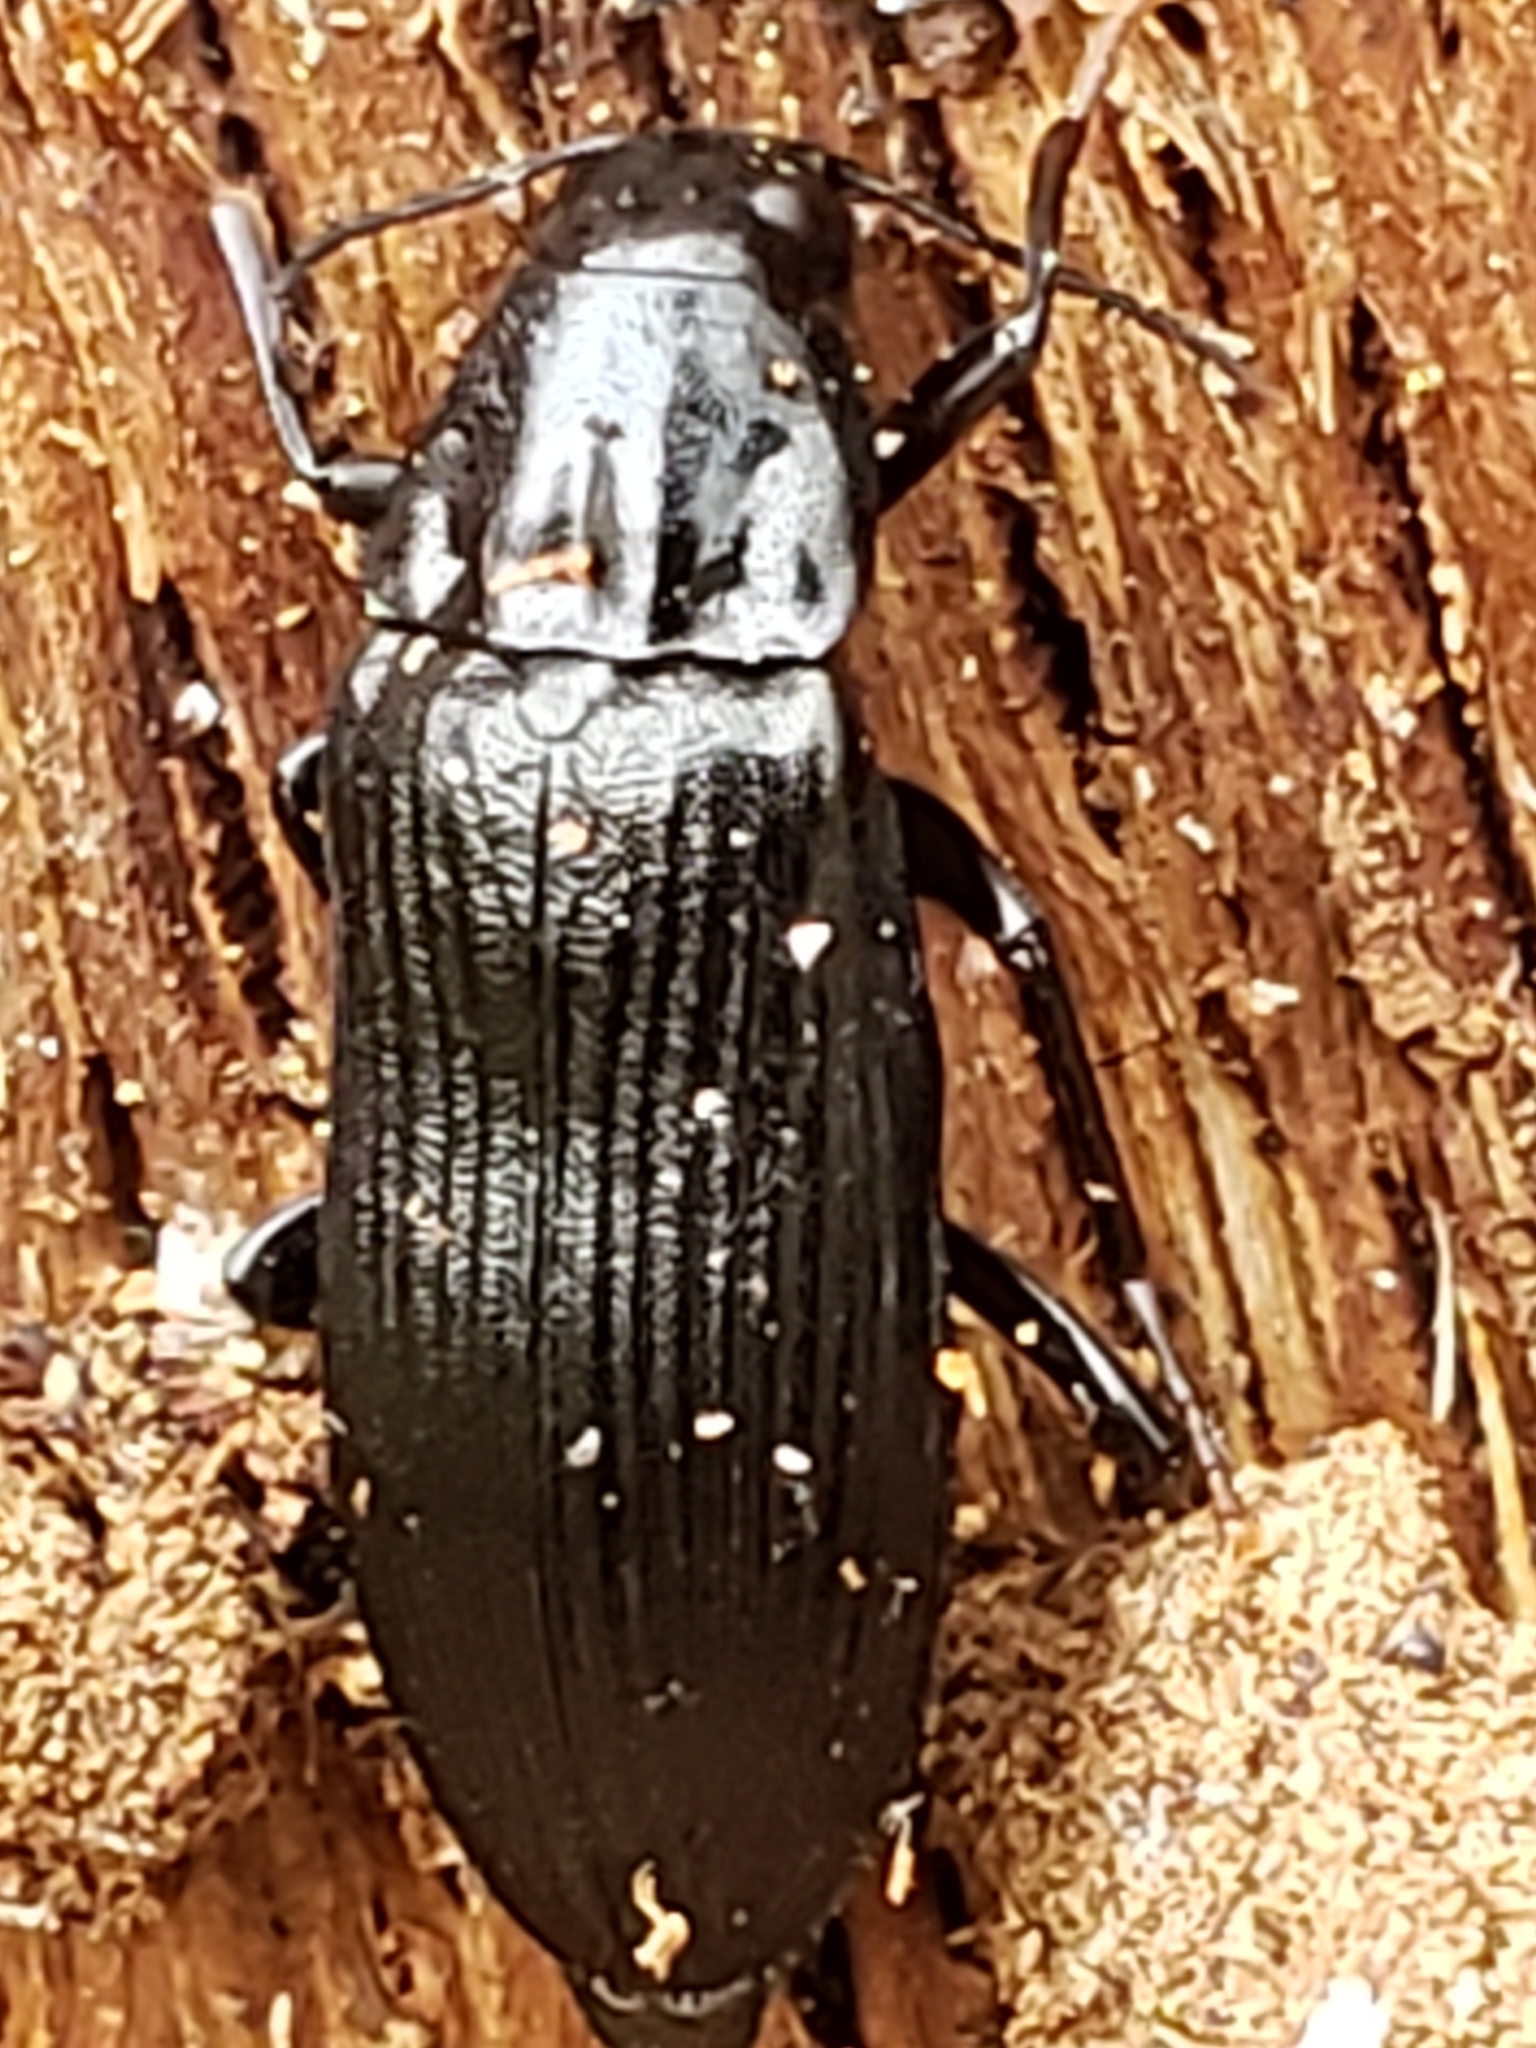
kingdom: Animalia
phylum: Arthropoda
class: Insecta
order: Coleoptera
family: Melandryidae
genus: Melandrya
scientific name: Melandrya striata
